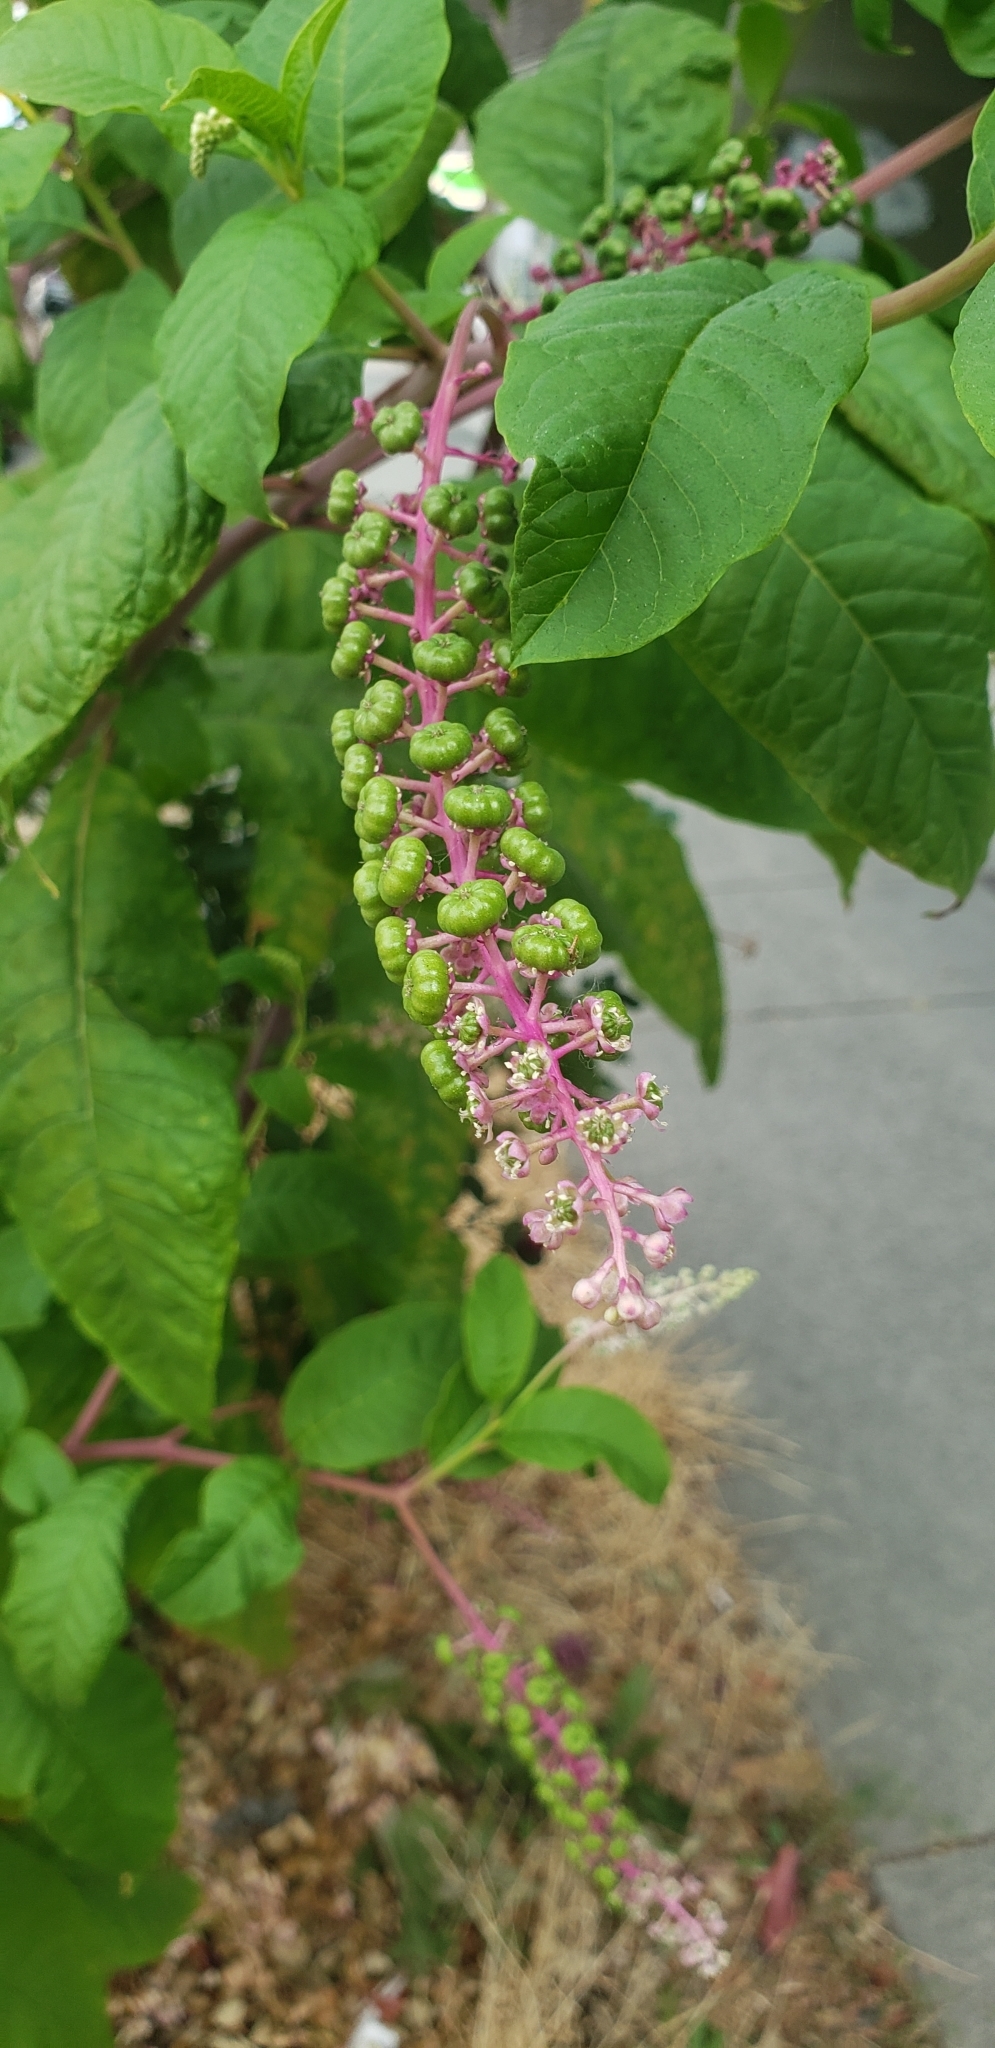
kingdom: Plantae
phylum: Tracheophyta
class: Magnoliopsida
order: Caryophyllales
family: Phytolaccaceae
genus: Phytolacca
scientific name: Phytolacca americana
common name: American pokeweed
